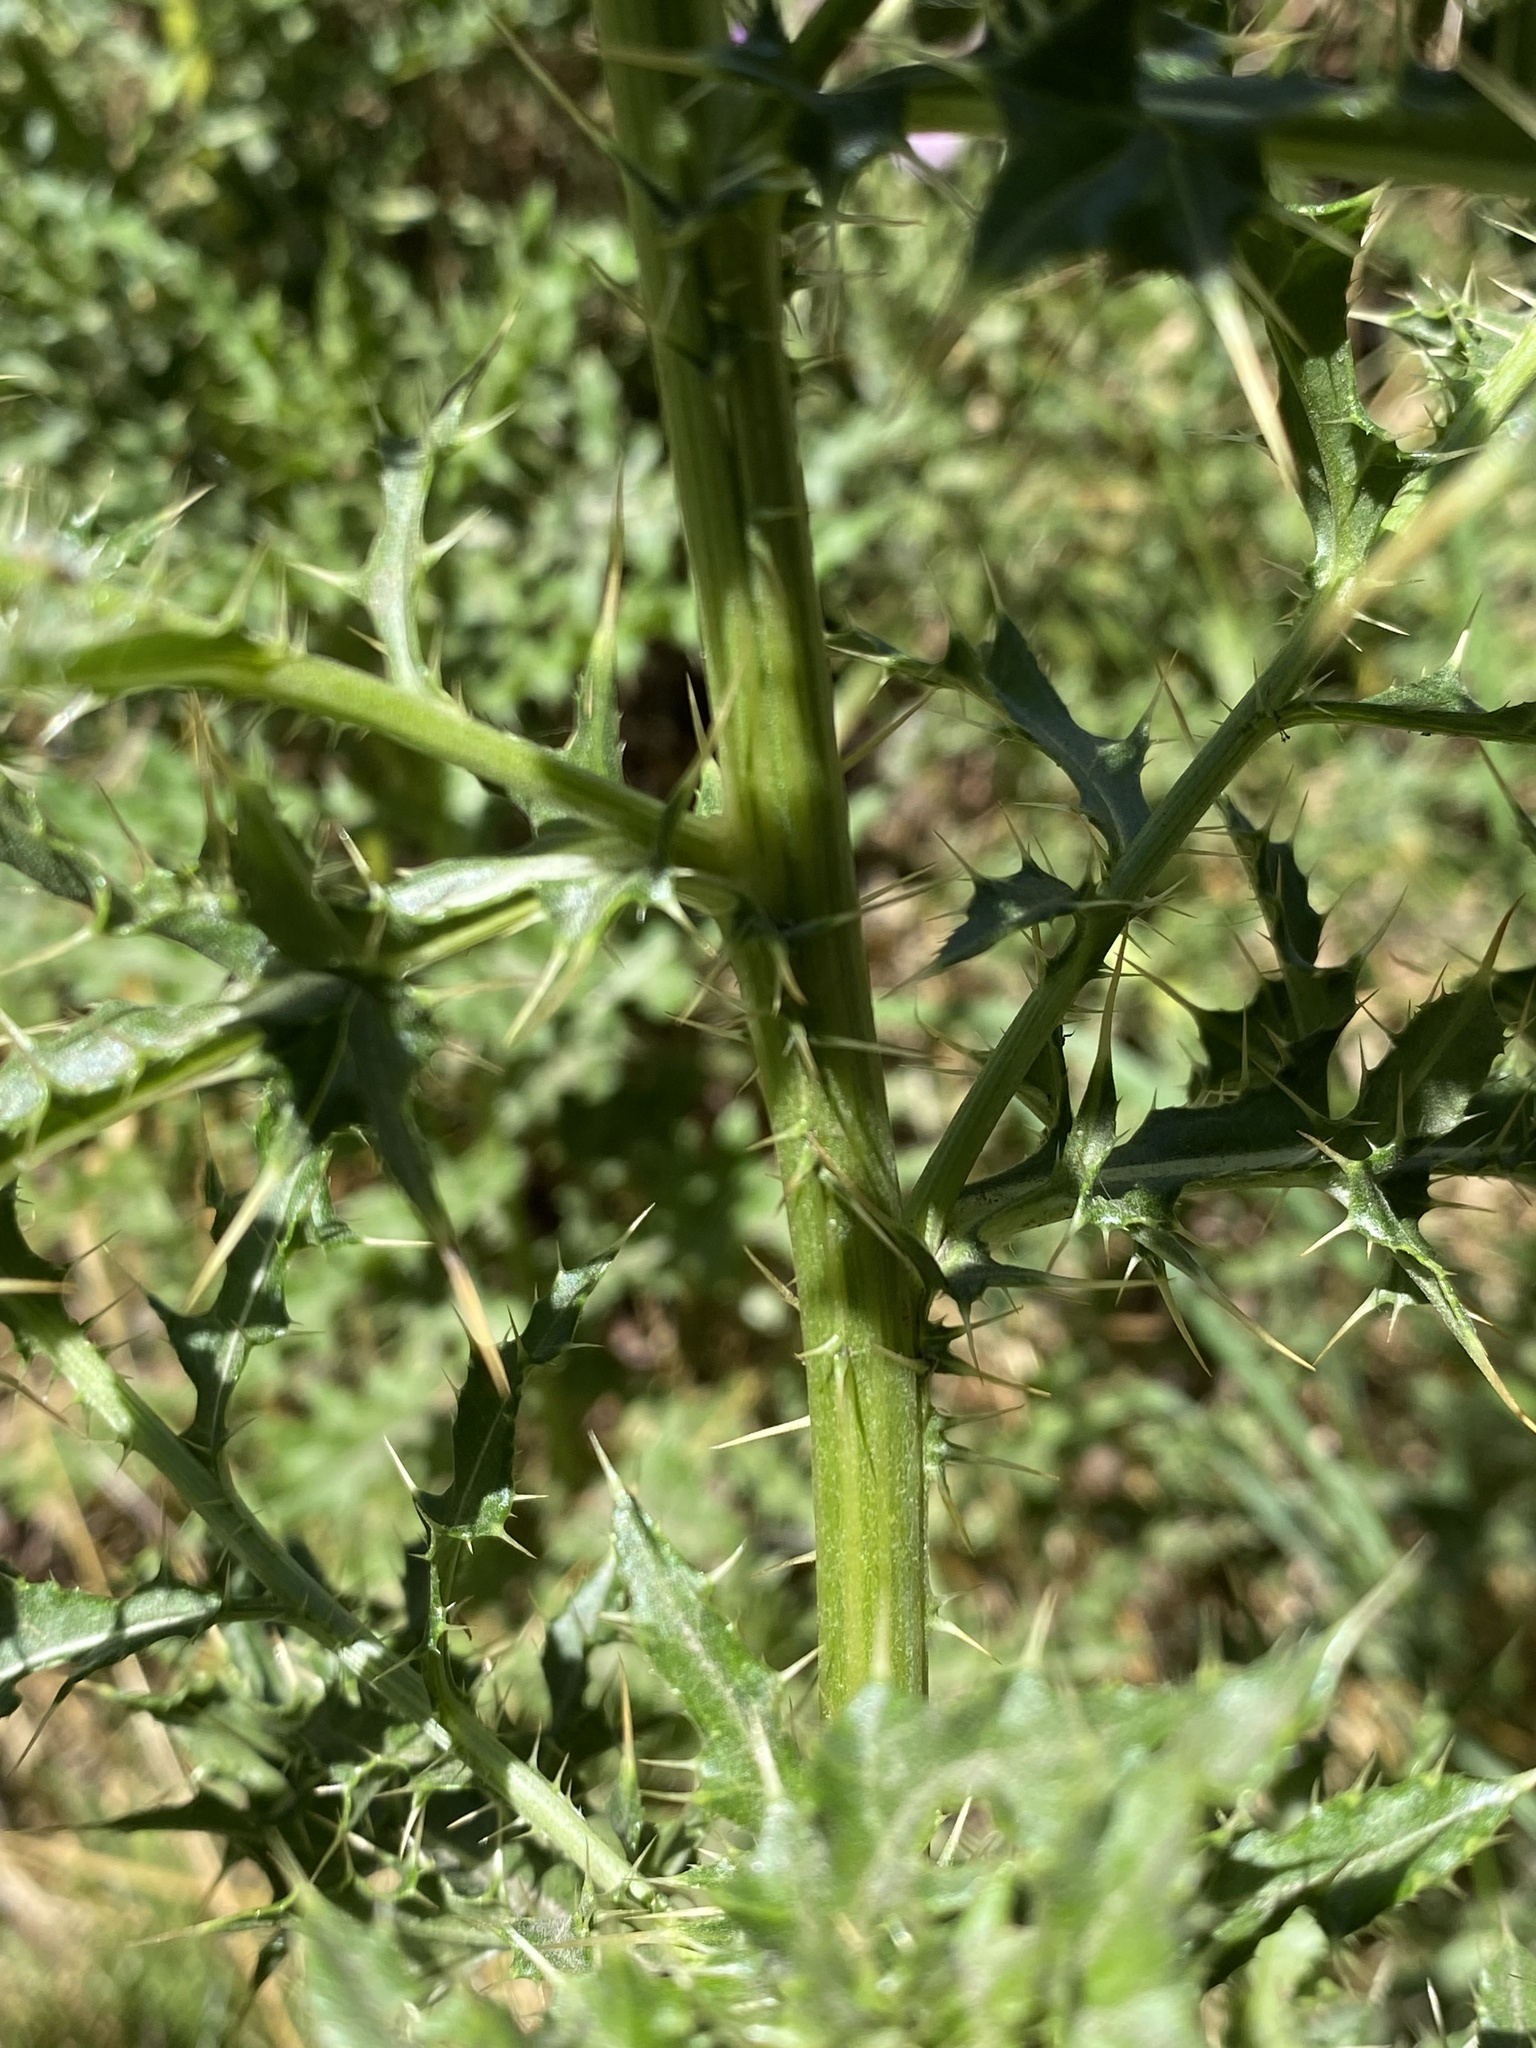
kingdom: Plantae
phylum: Tracheophyta
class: Magnoliopsida
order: Asterales
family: Asteraceae
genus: Cirsium
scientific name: Cirsium arvense
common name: Creeping thistle
